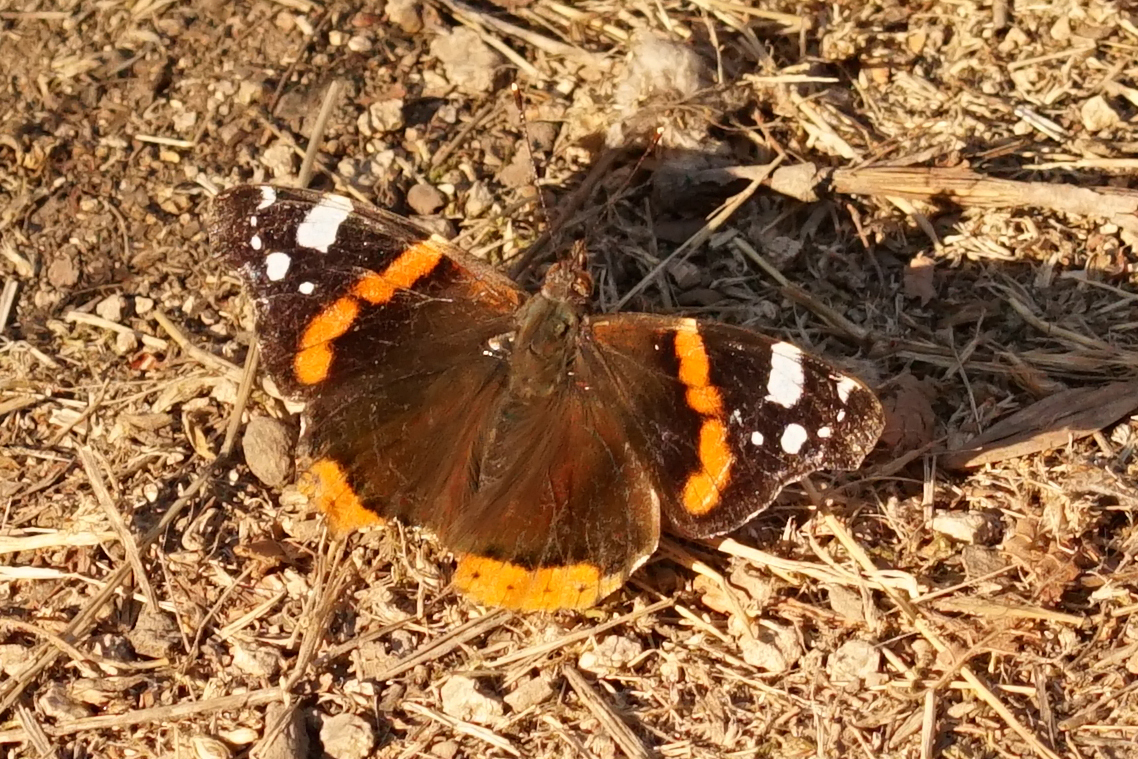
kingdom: Animalia
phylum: Arthropoda
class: Insecta
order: Lepidoptera
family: Nymphalidae
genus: Vanessa
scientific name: Vanessa atalanta
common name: Red admiral
